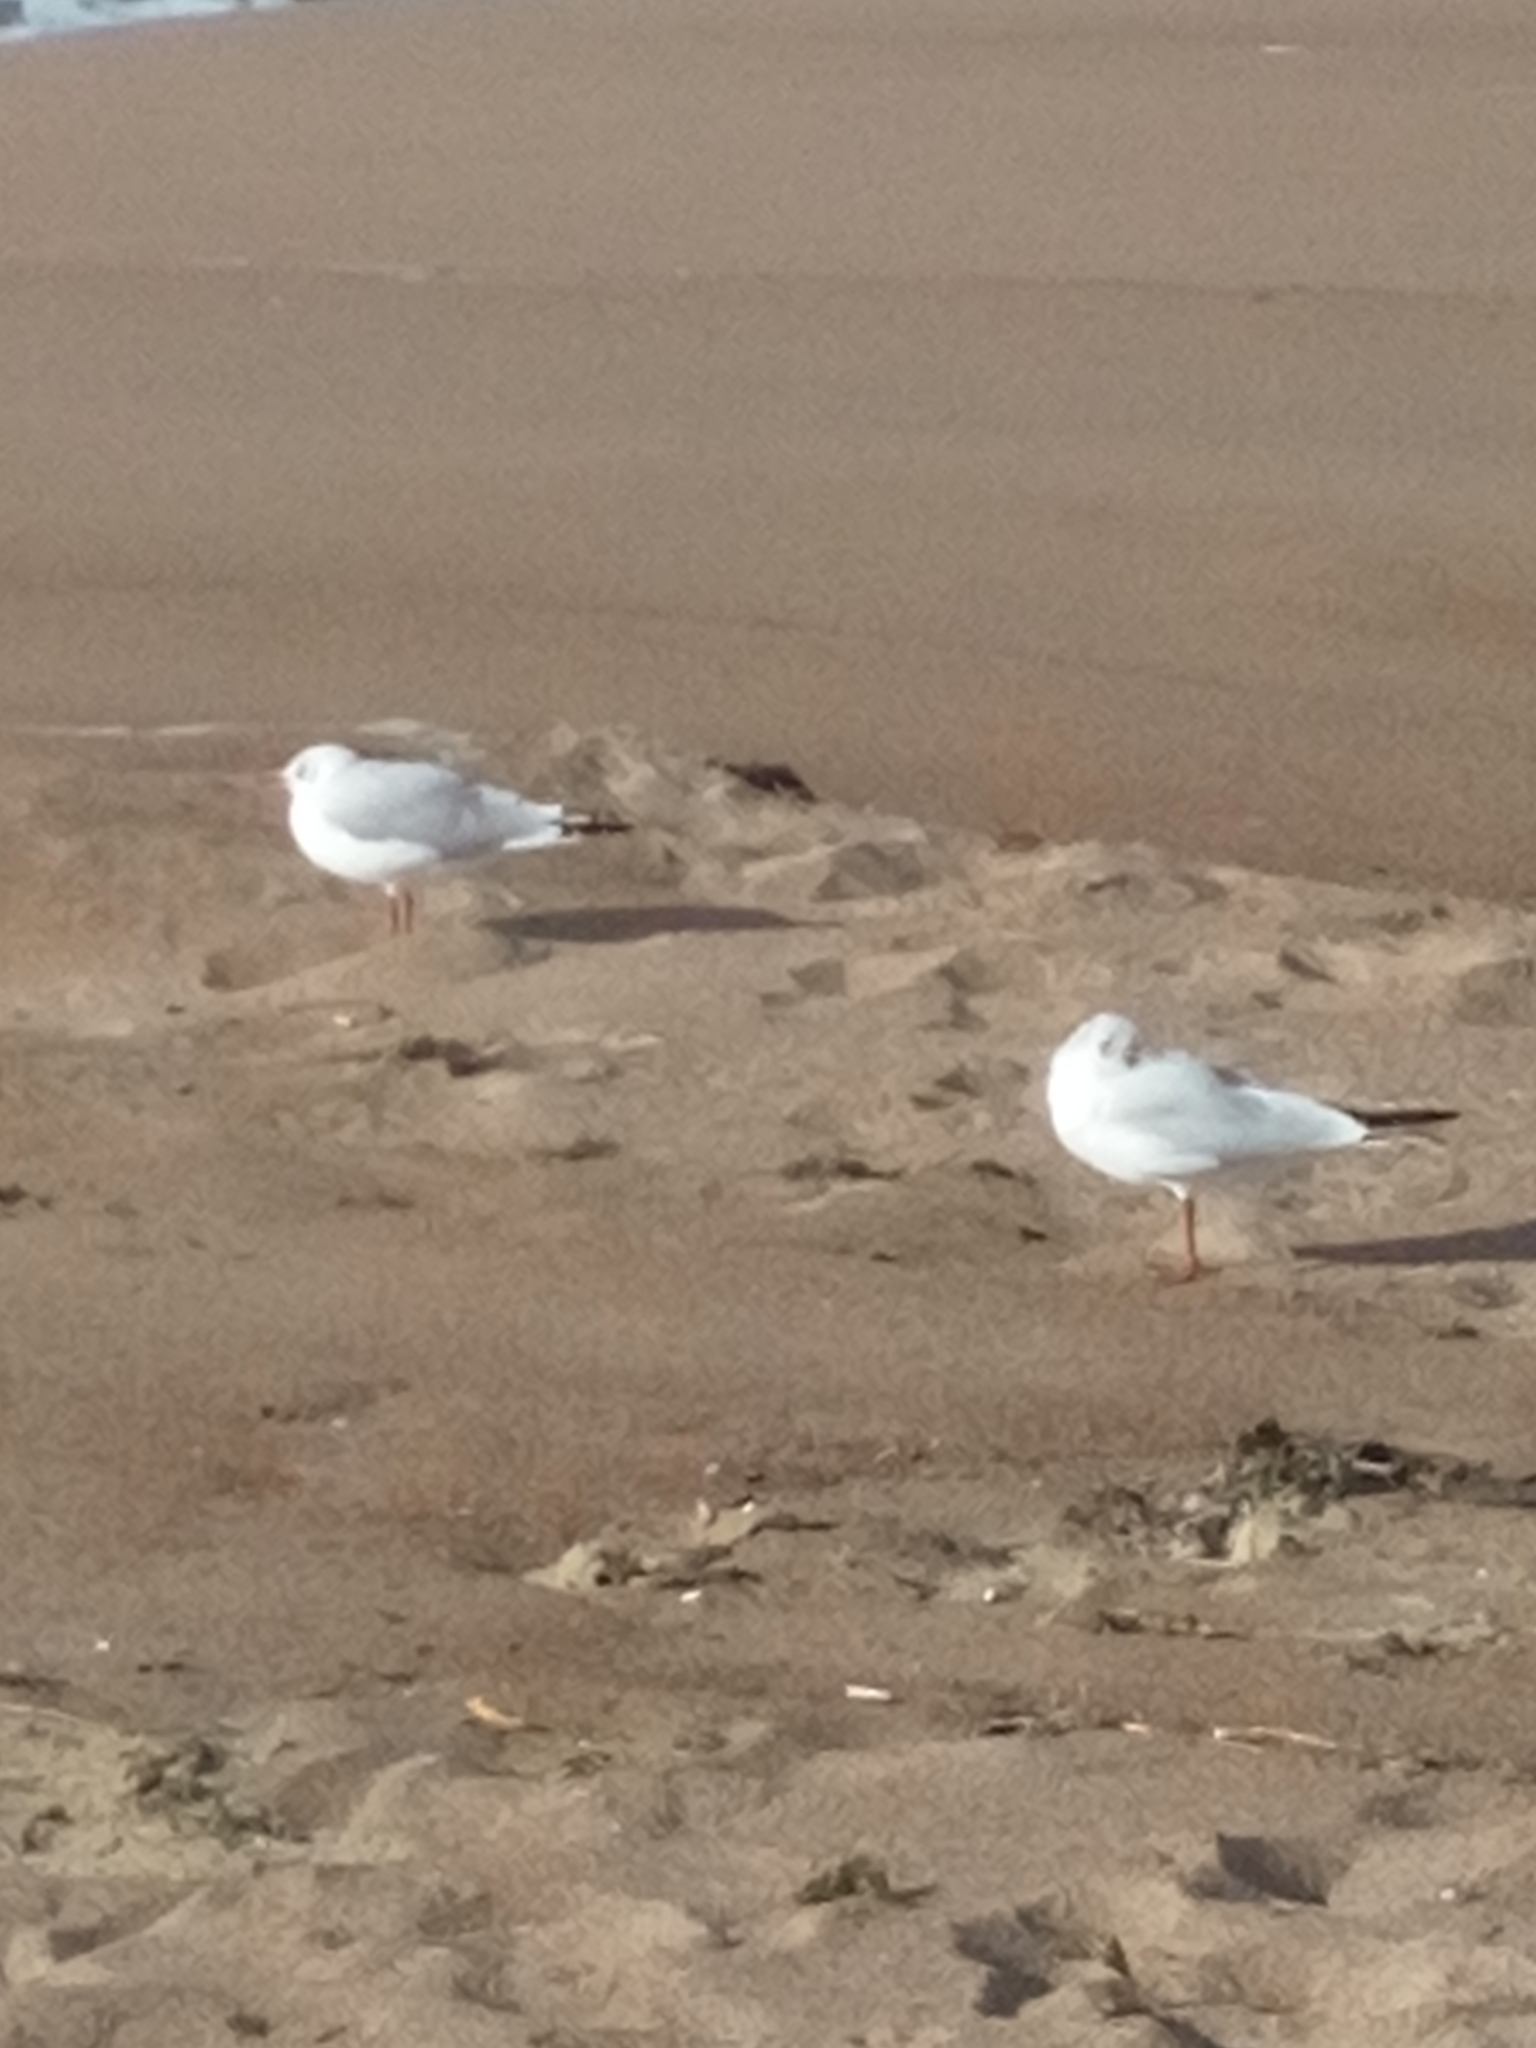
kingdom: Animalia
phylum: Chordata
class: Aves
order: Charadriiformes
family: Laridae
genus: Chroicocephalus
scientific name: Chroicocephalus ridibundus
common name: Black-headed gull
